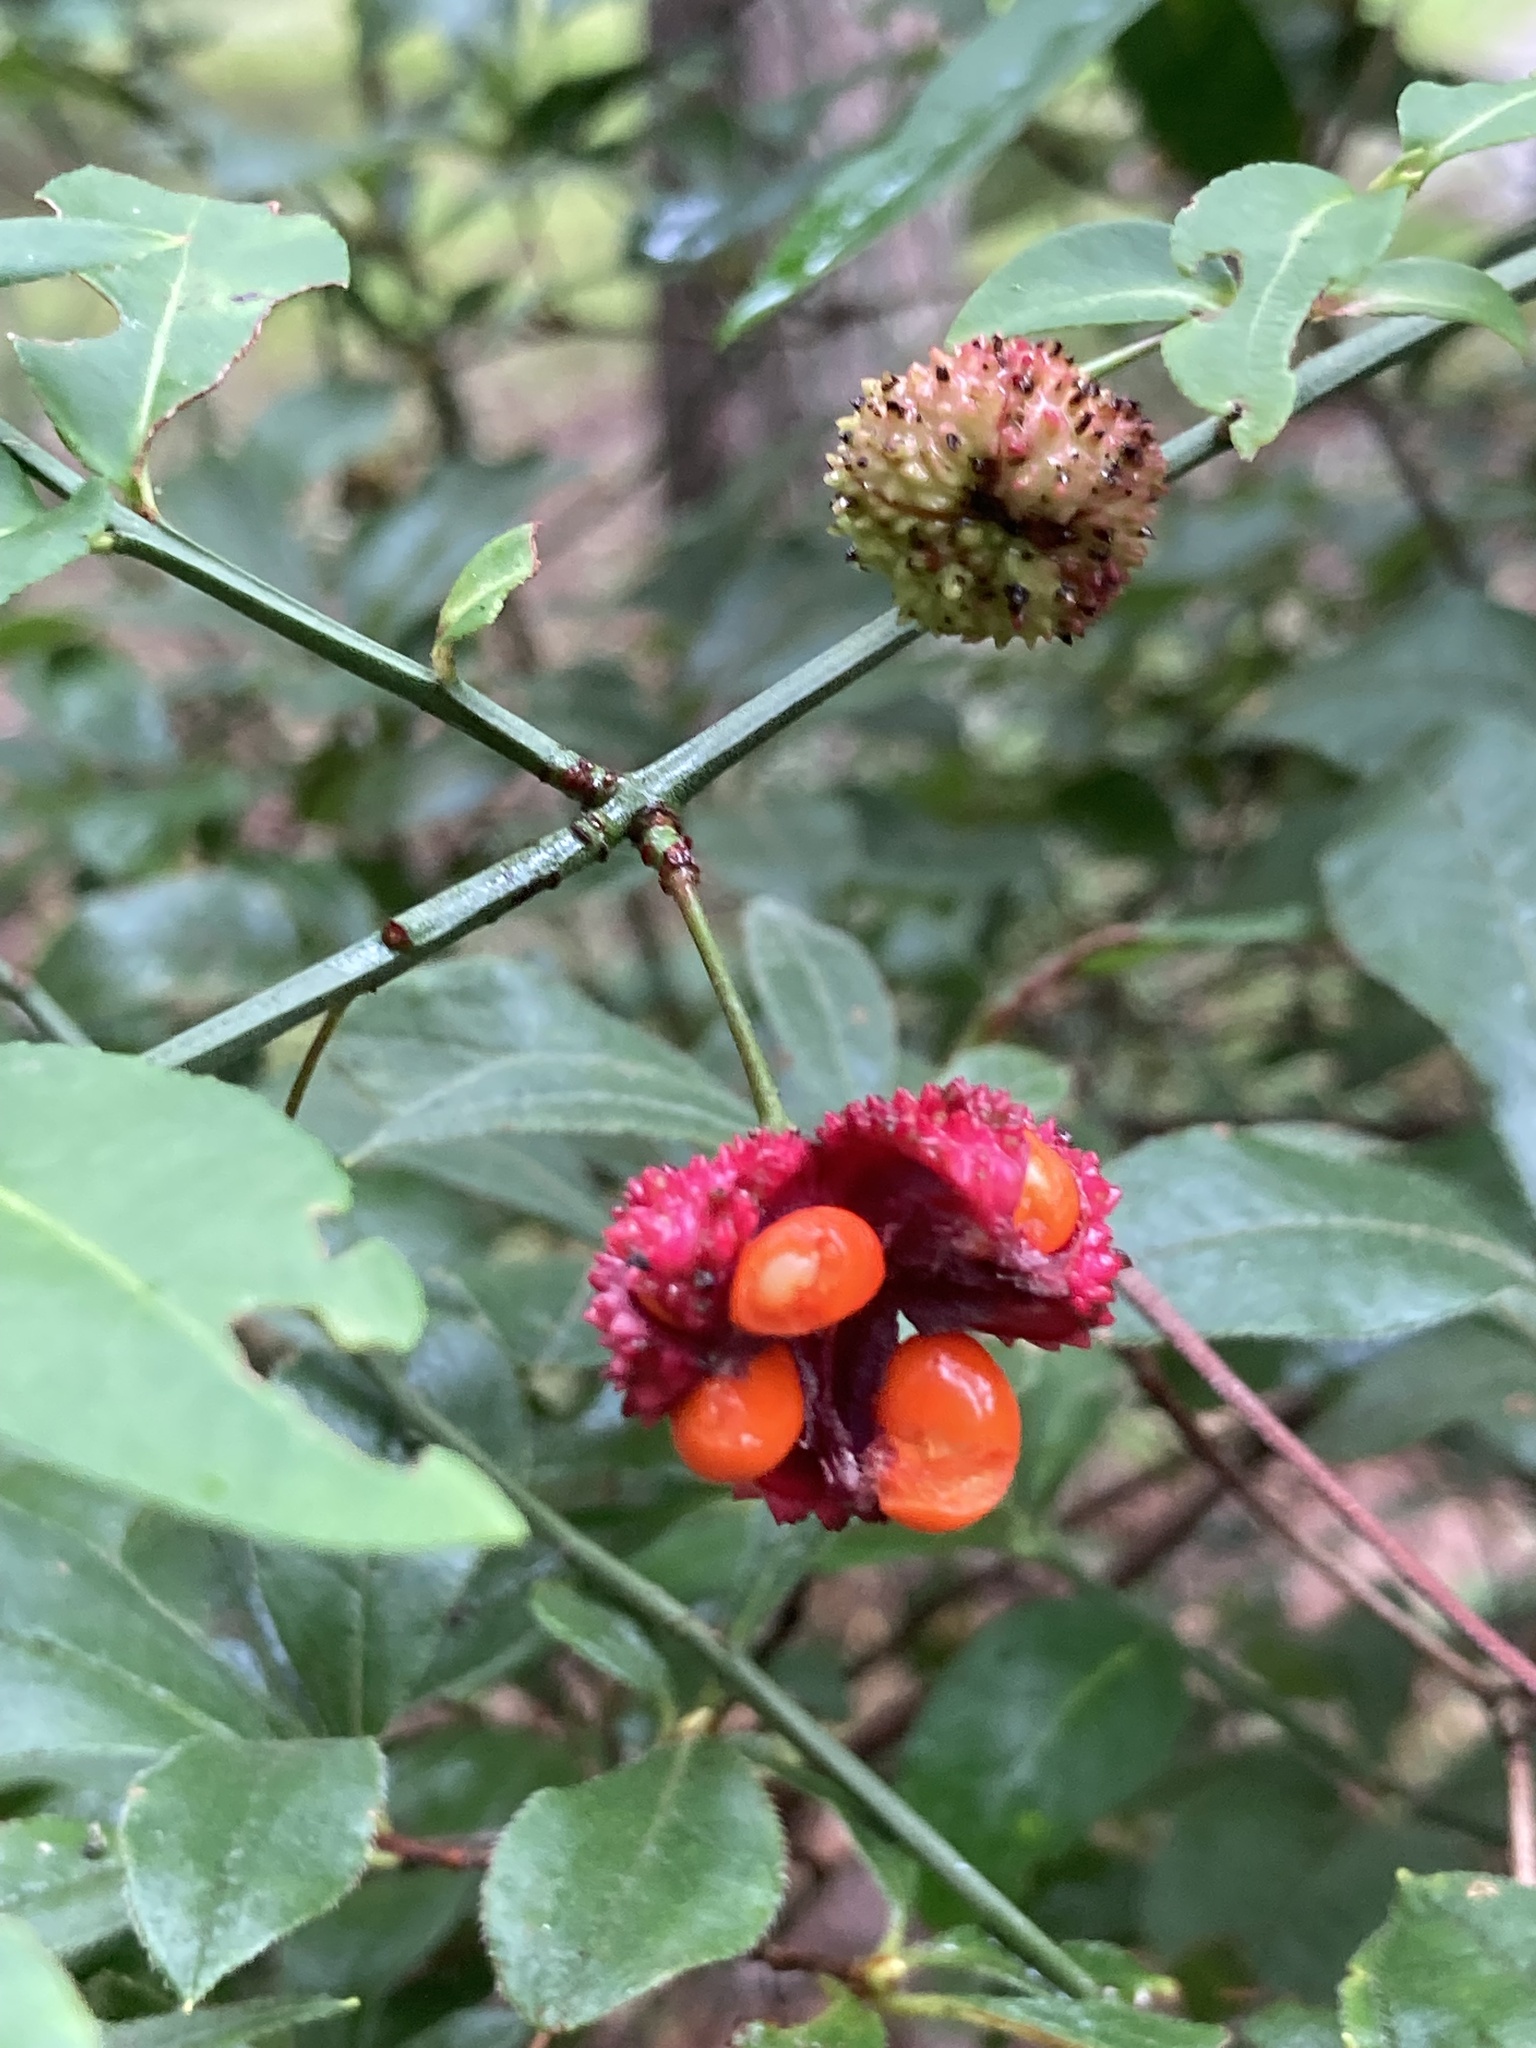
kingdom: Plantae
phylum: Tracheophyta
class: Magnoliopsida
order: Celastrales
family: Celastraceae
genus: Euonymus
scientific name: Euonymus americanus
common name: Bursting-heart
